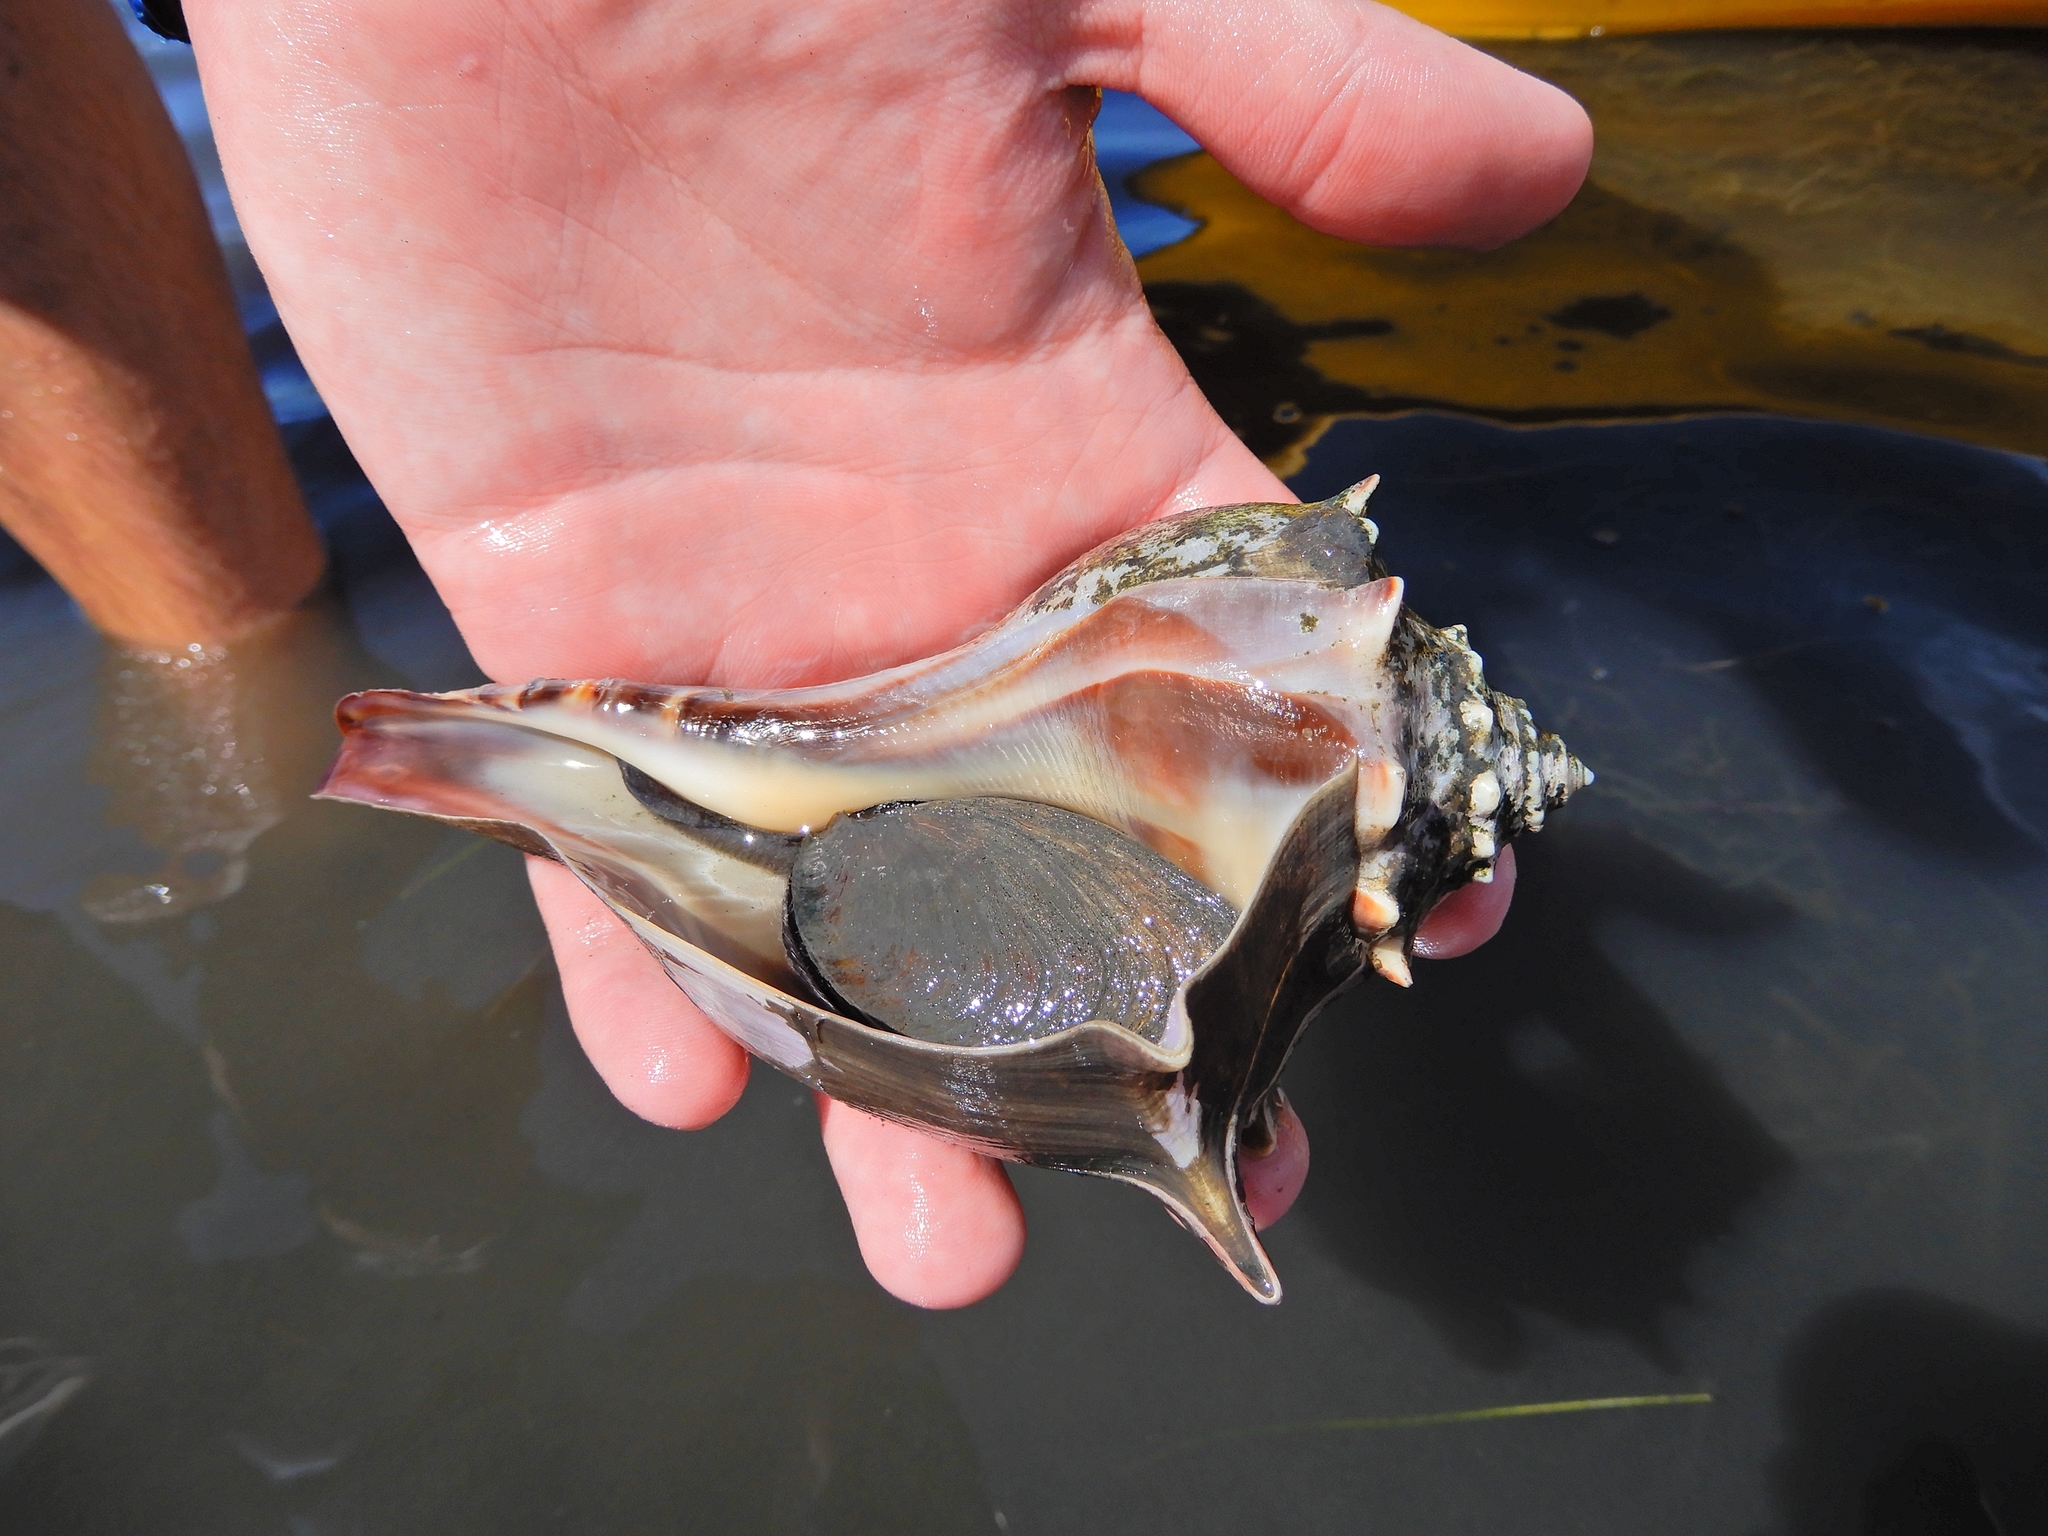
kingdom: Animalia
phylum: Mollusca
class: Gastropoda
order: Neogastropoda
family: Busyconidae
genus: Busycon
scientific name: Busycon carica
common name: Knobbed whelk
